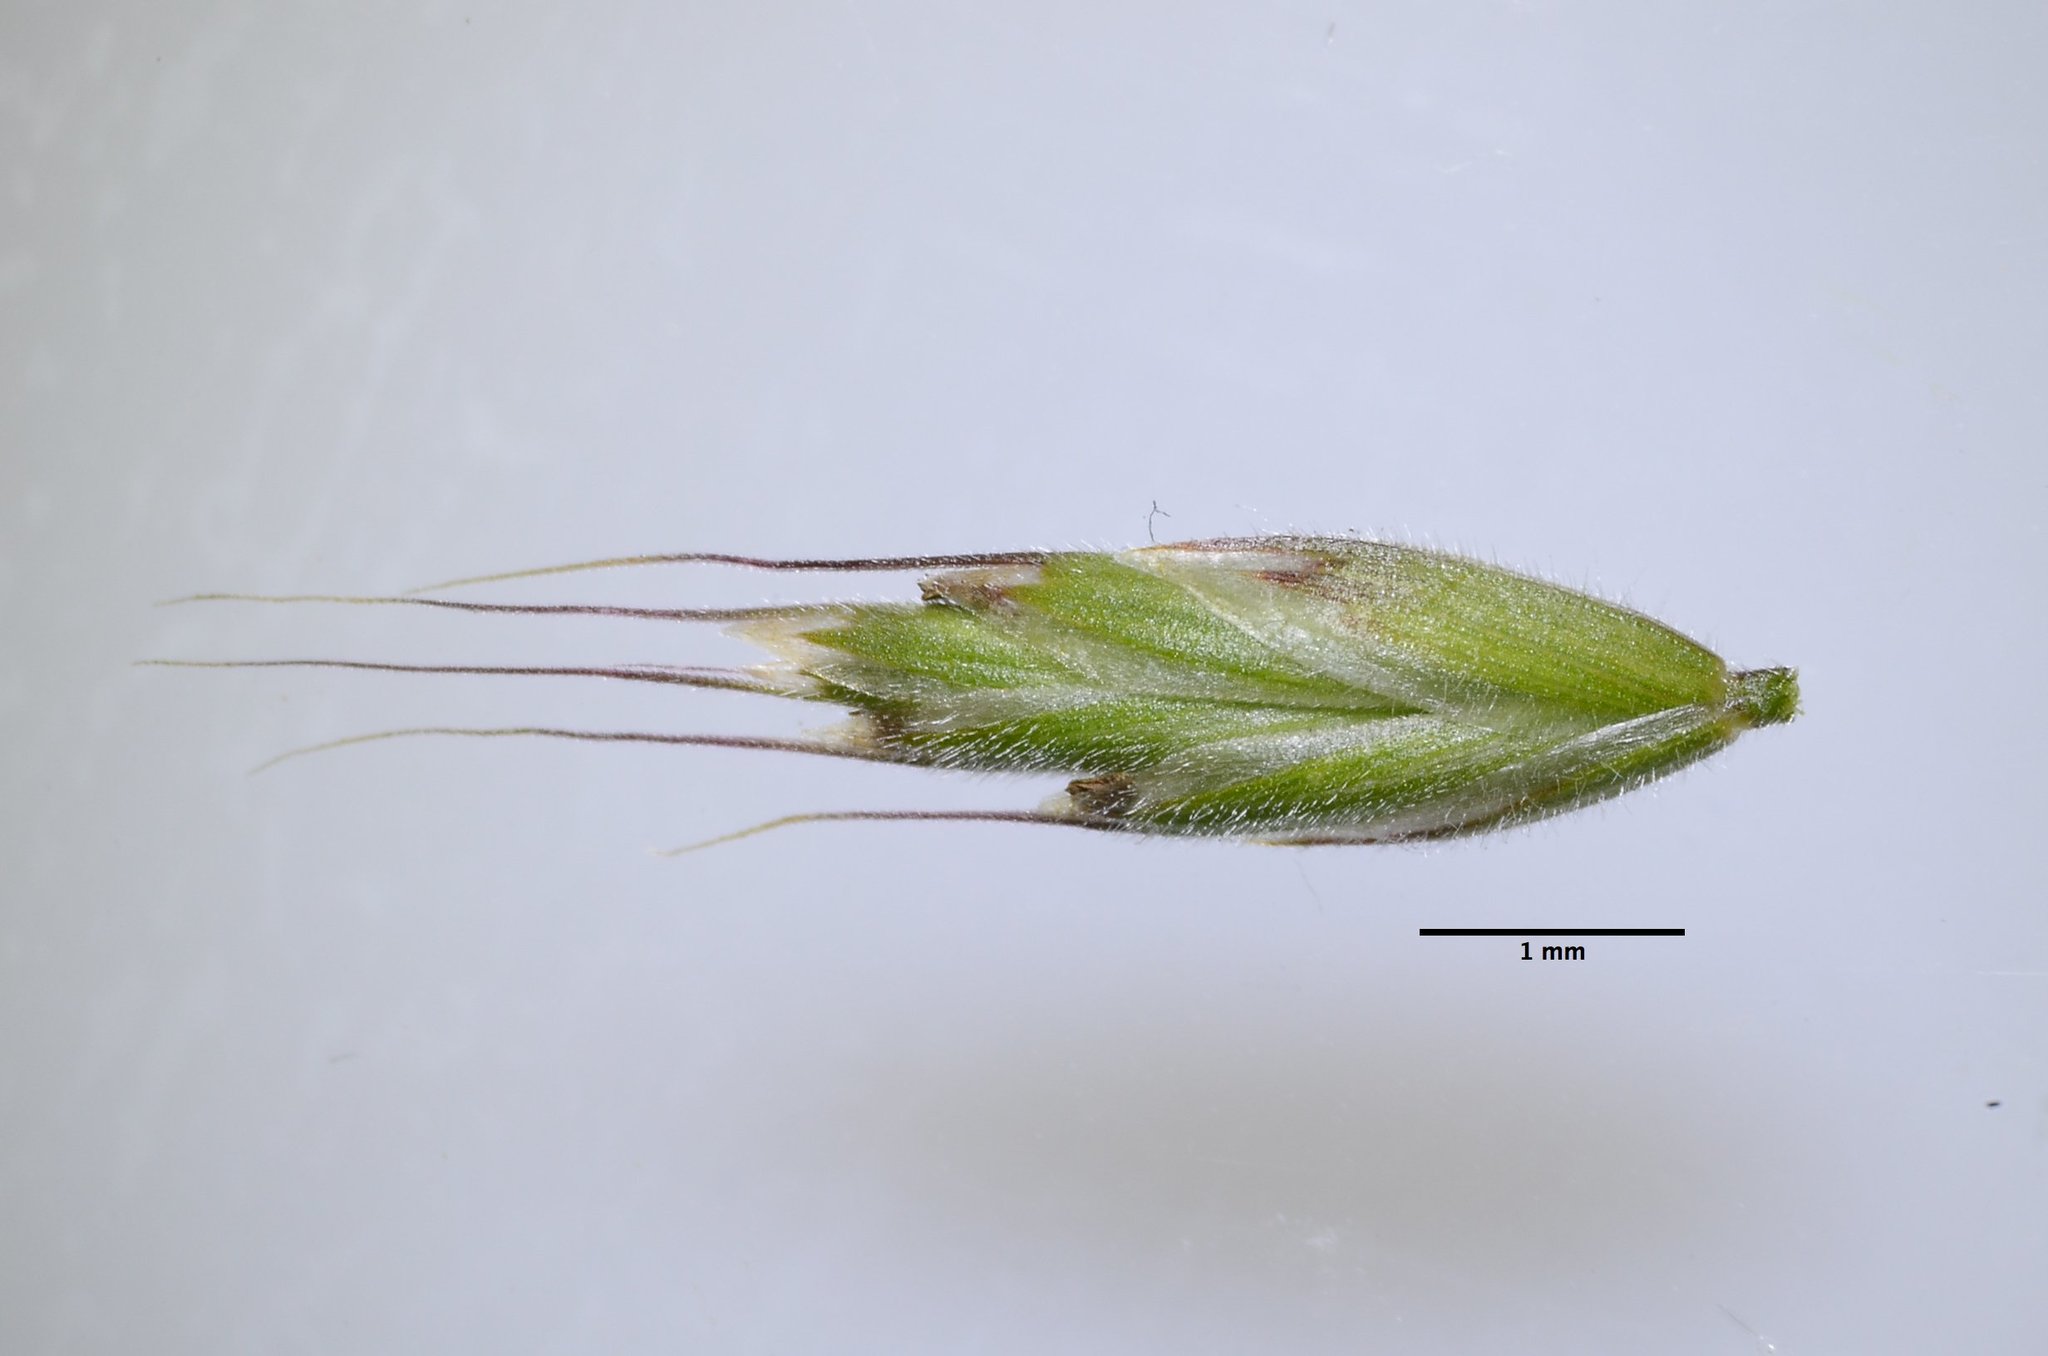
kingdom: Plantae
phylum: Tracheophyta
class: Liliopsida
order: Poales
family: Poaceae
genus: Bromus
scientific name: Bromus hordeaceus
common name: Soft brome
